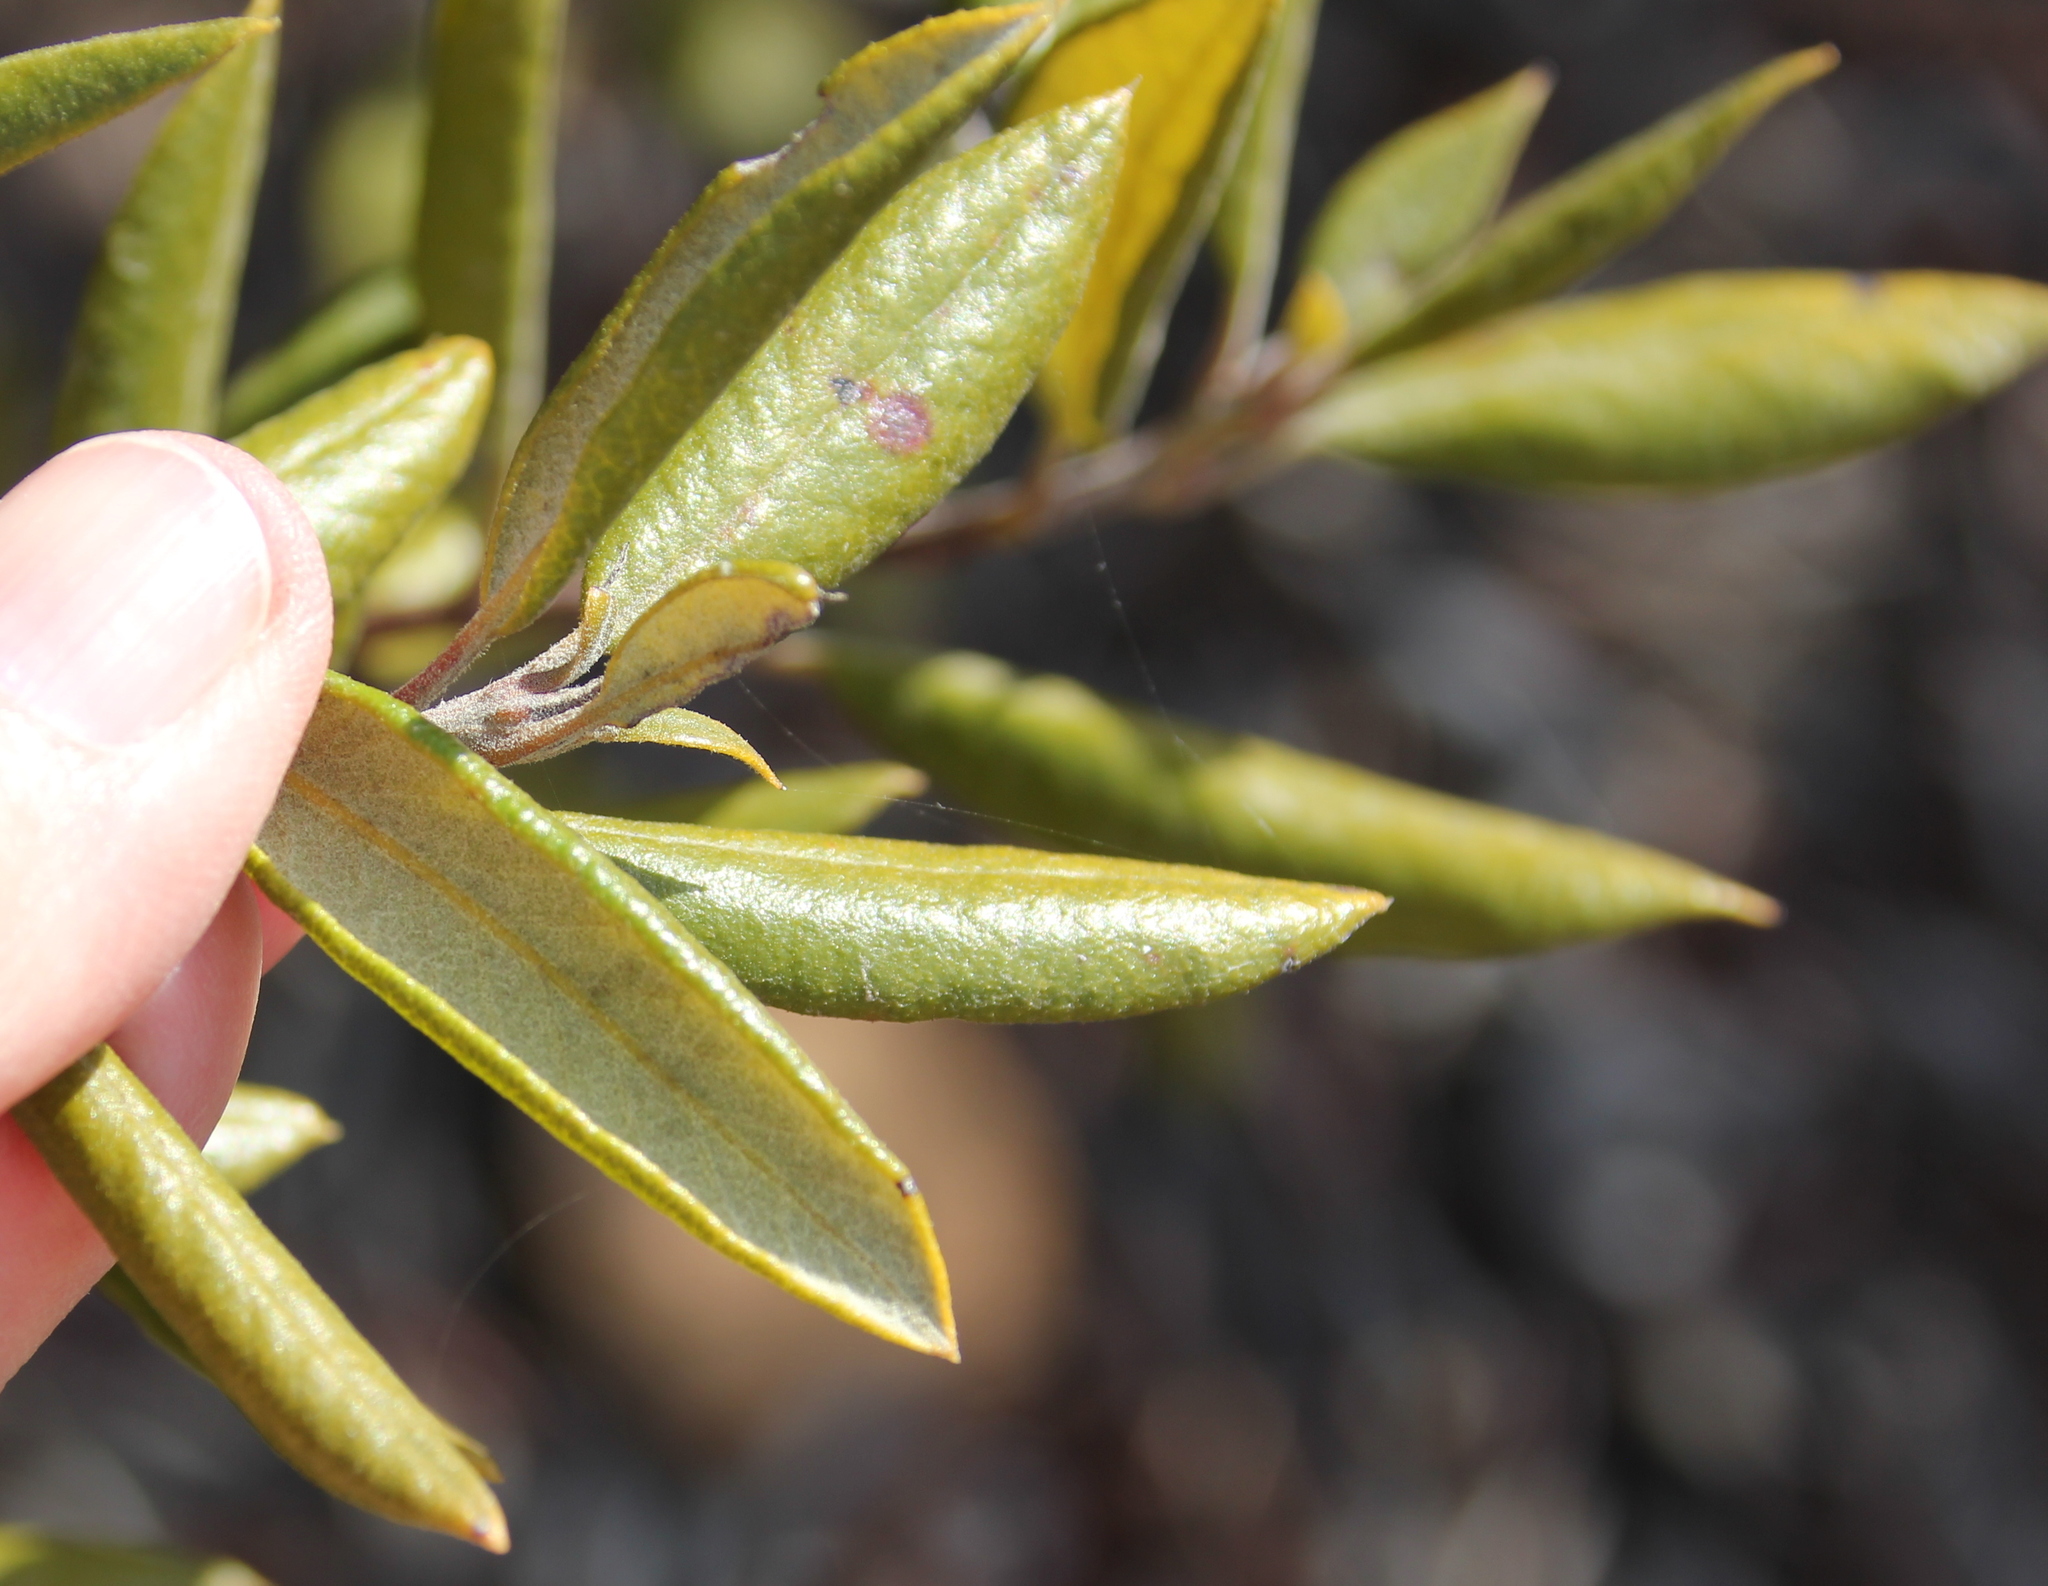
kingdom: Plantae
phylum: Tracheophyta
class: Magnoliopsida
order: Ericales
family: Ericaceae
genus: Arctostaphylos
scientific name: Arctostaphylos bicolor
